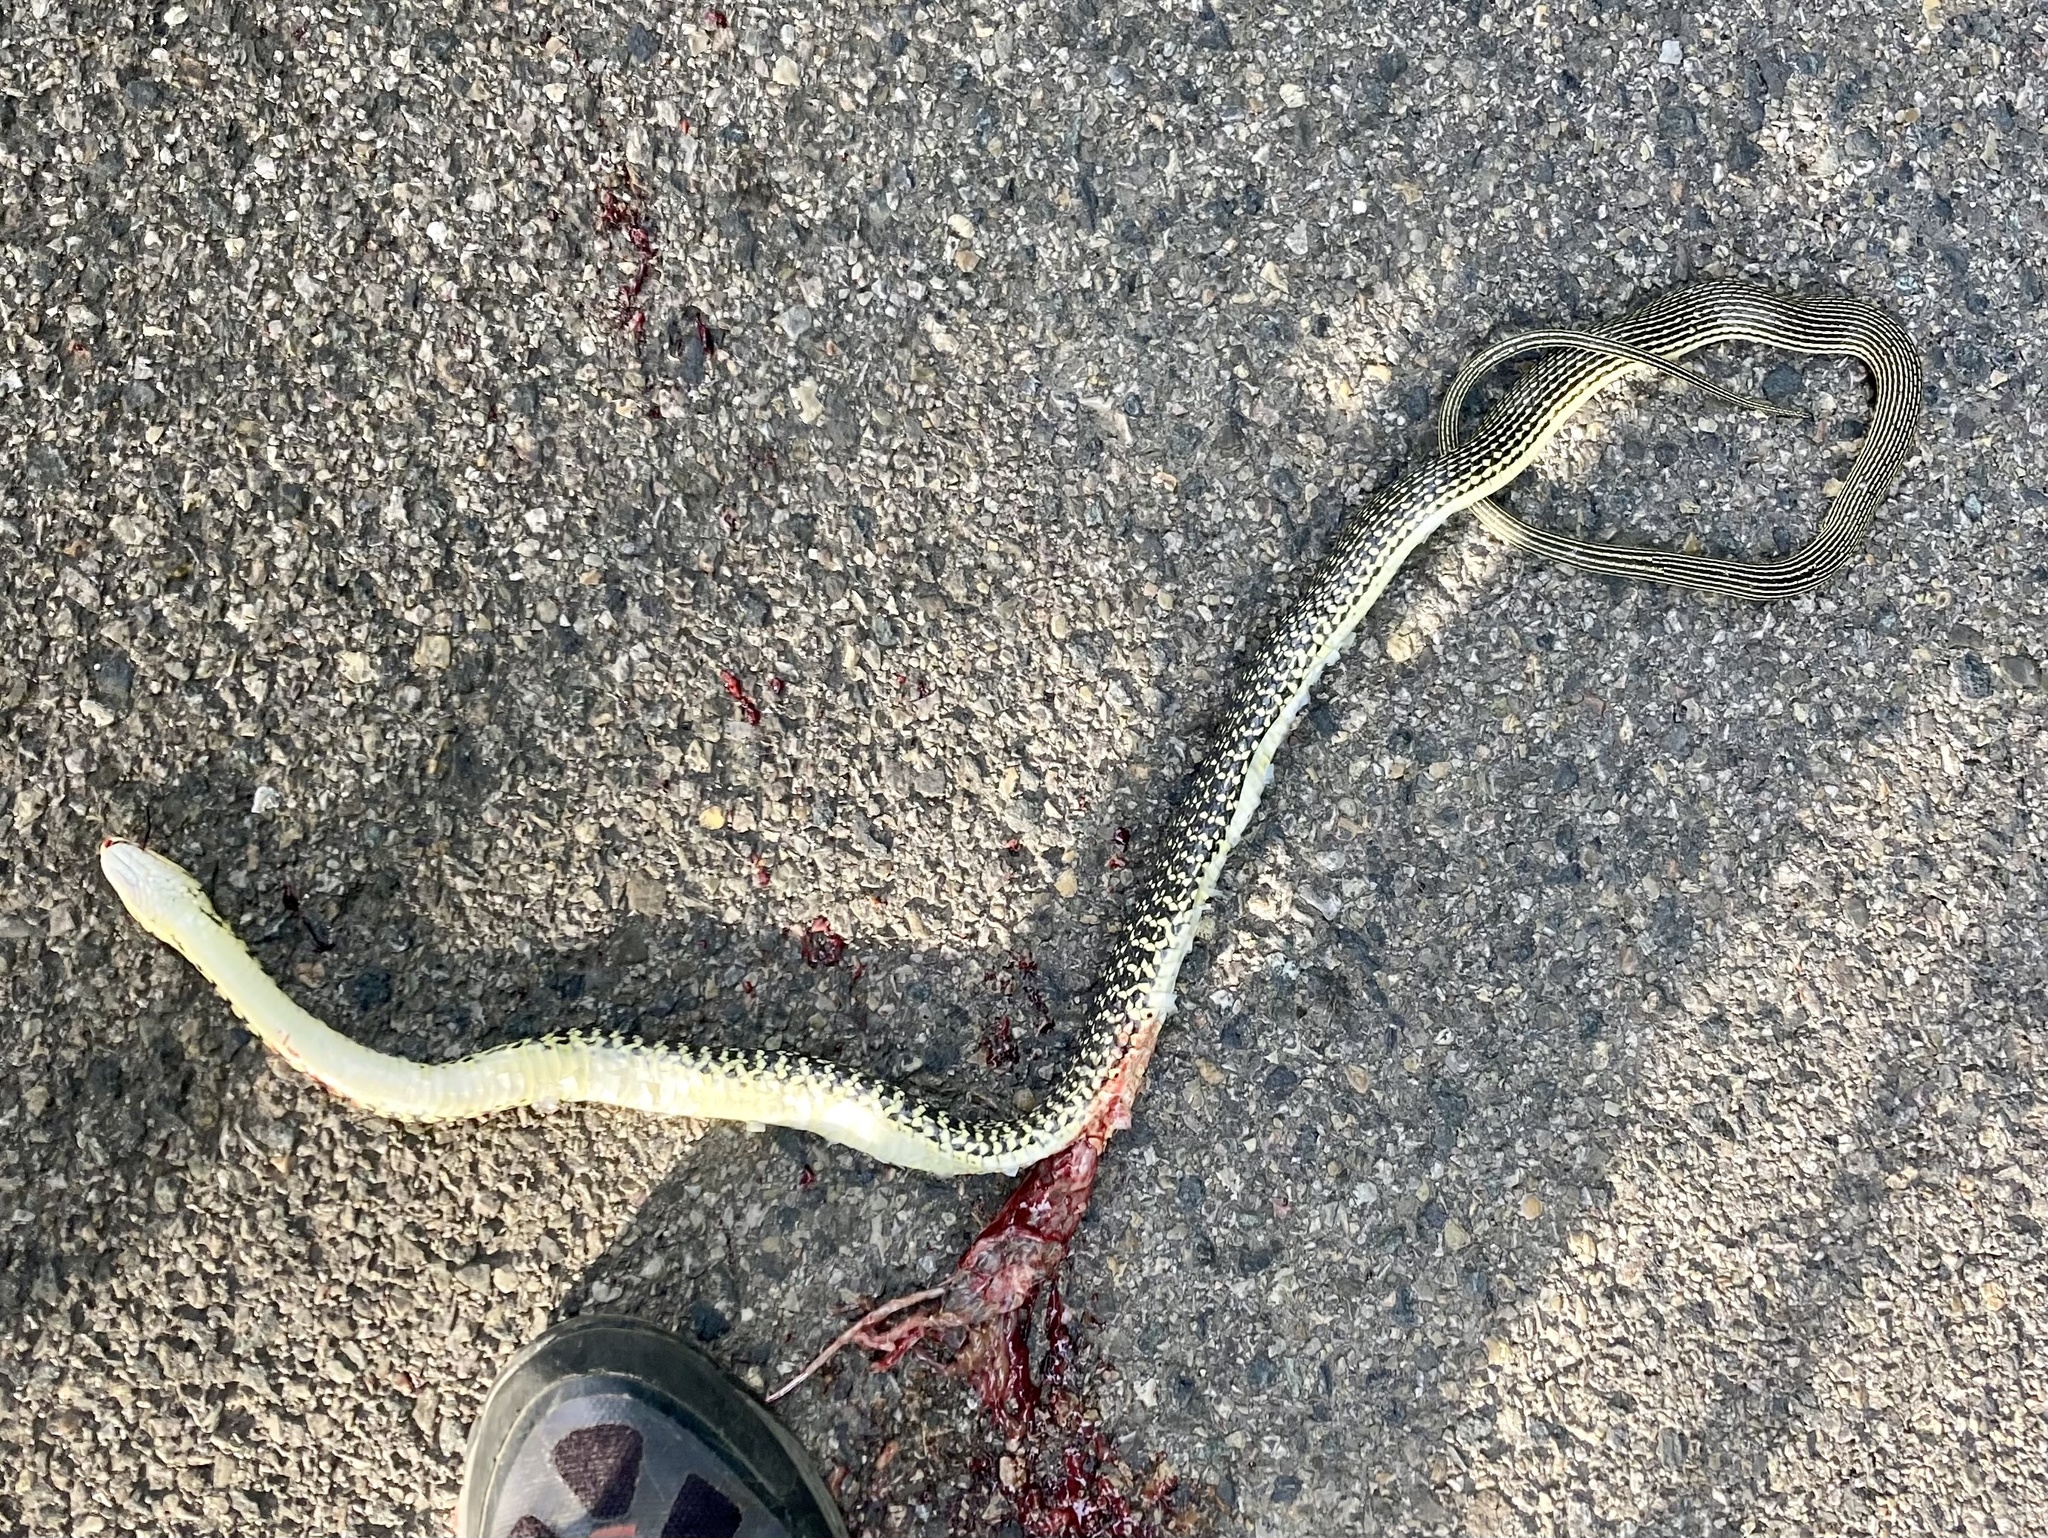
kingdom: Animalia
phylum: Chordata
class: Squamata
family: Colubridae
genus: Hierophis
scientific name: Hierophis viridiflavus
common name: Green whip snake
